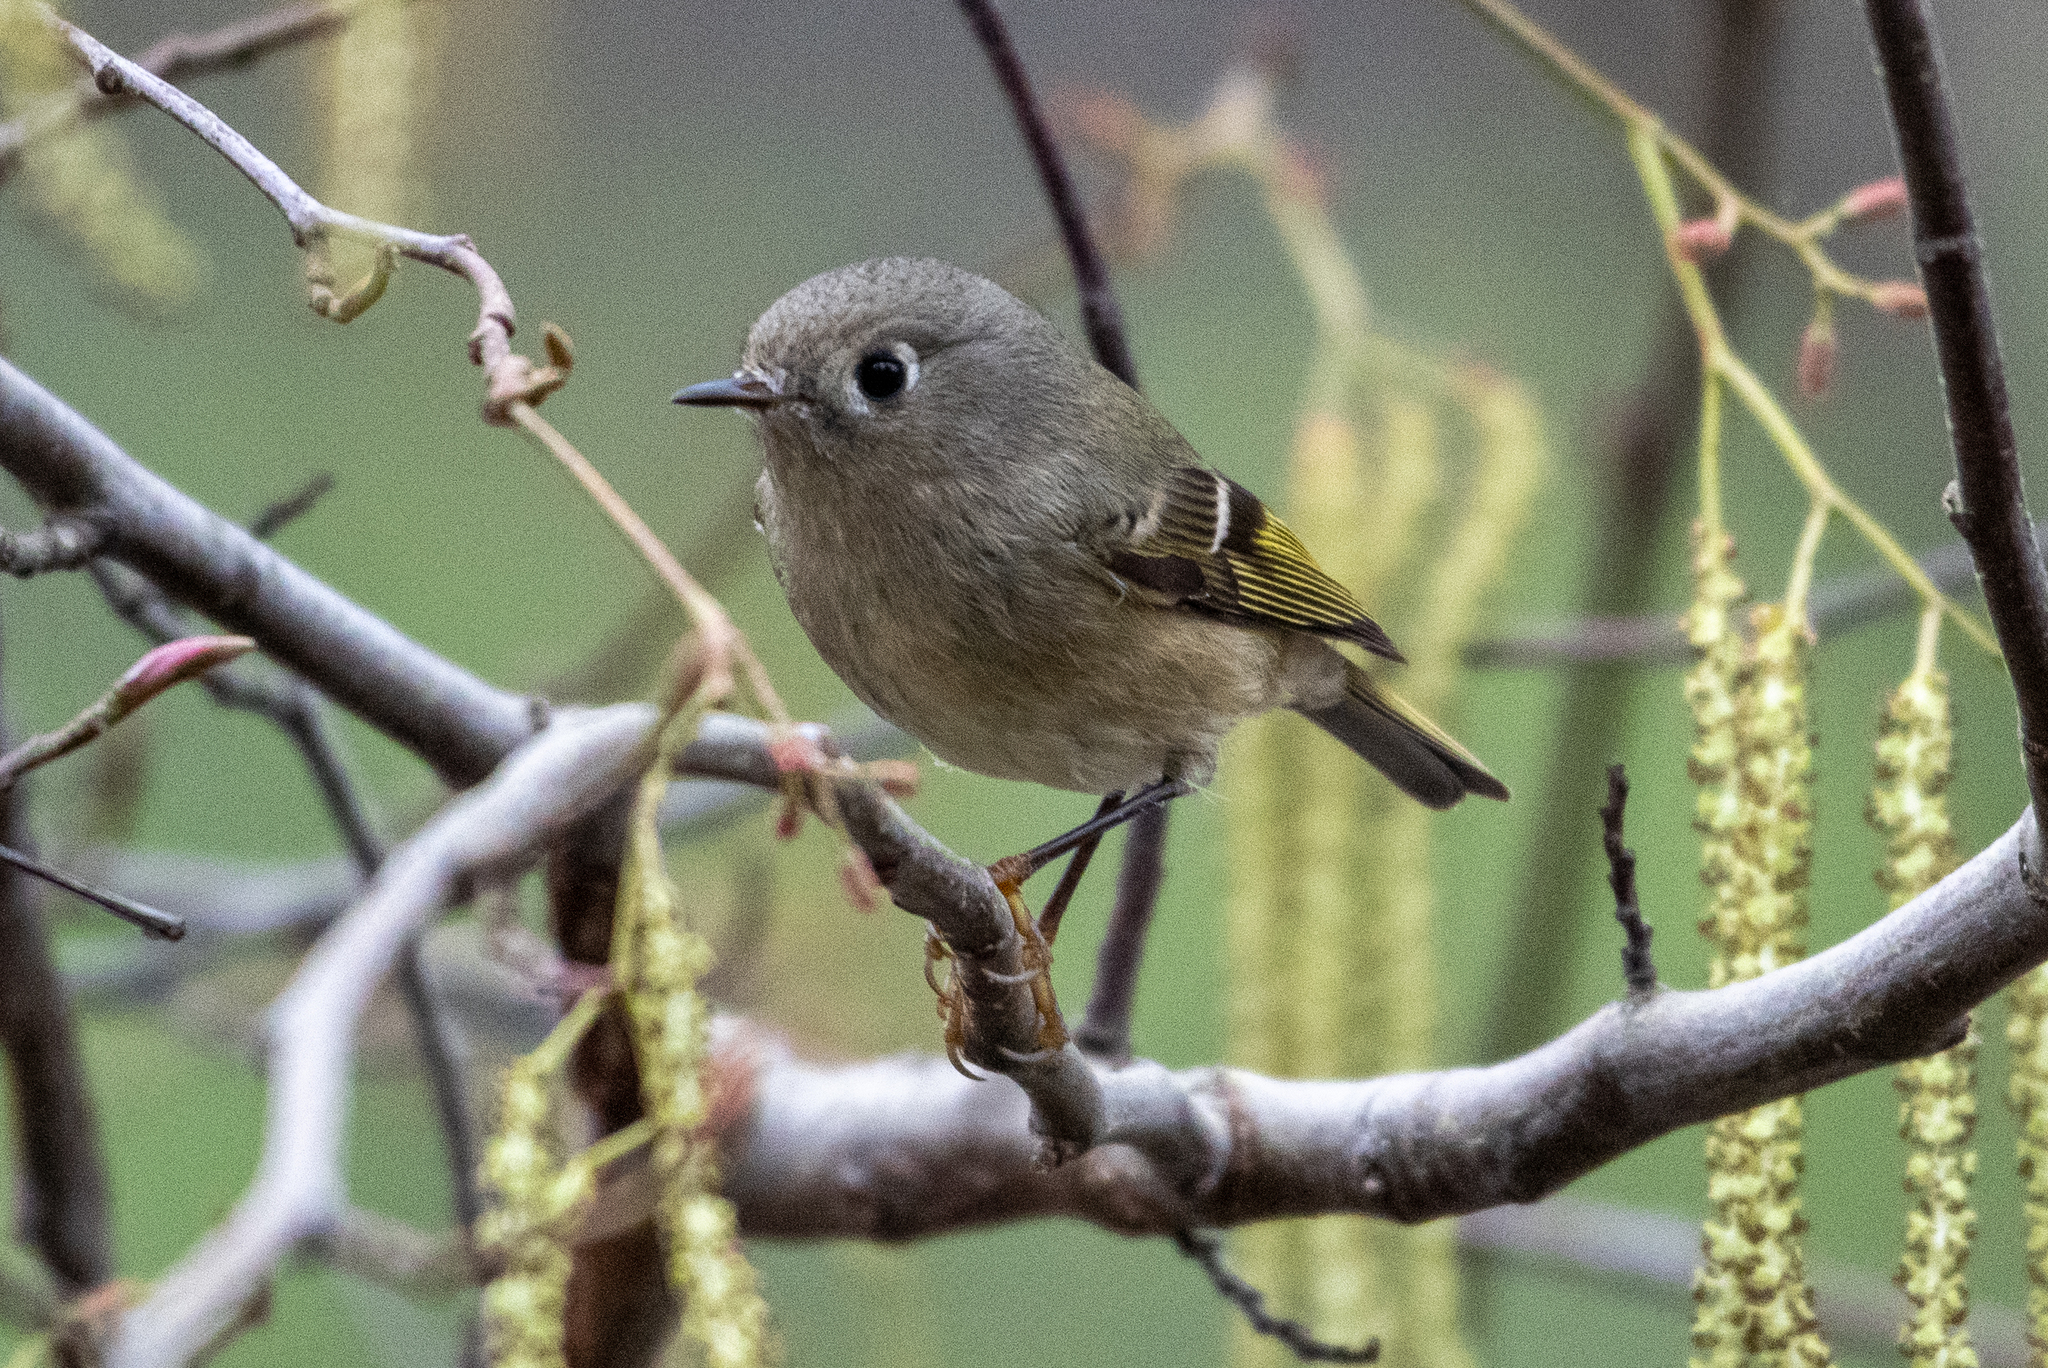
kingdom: Animalia
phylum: Chordata
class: Aves
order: Passeriformes
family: Regulidae
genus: Regulus
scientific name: Regulus calendula
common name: Ruby-crowned kinglet
